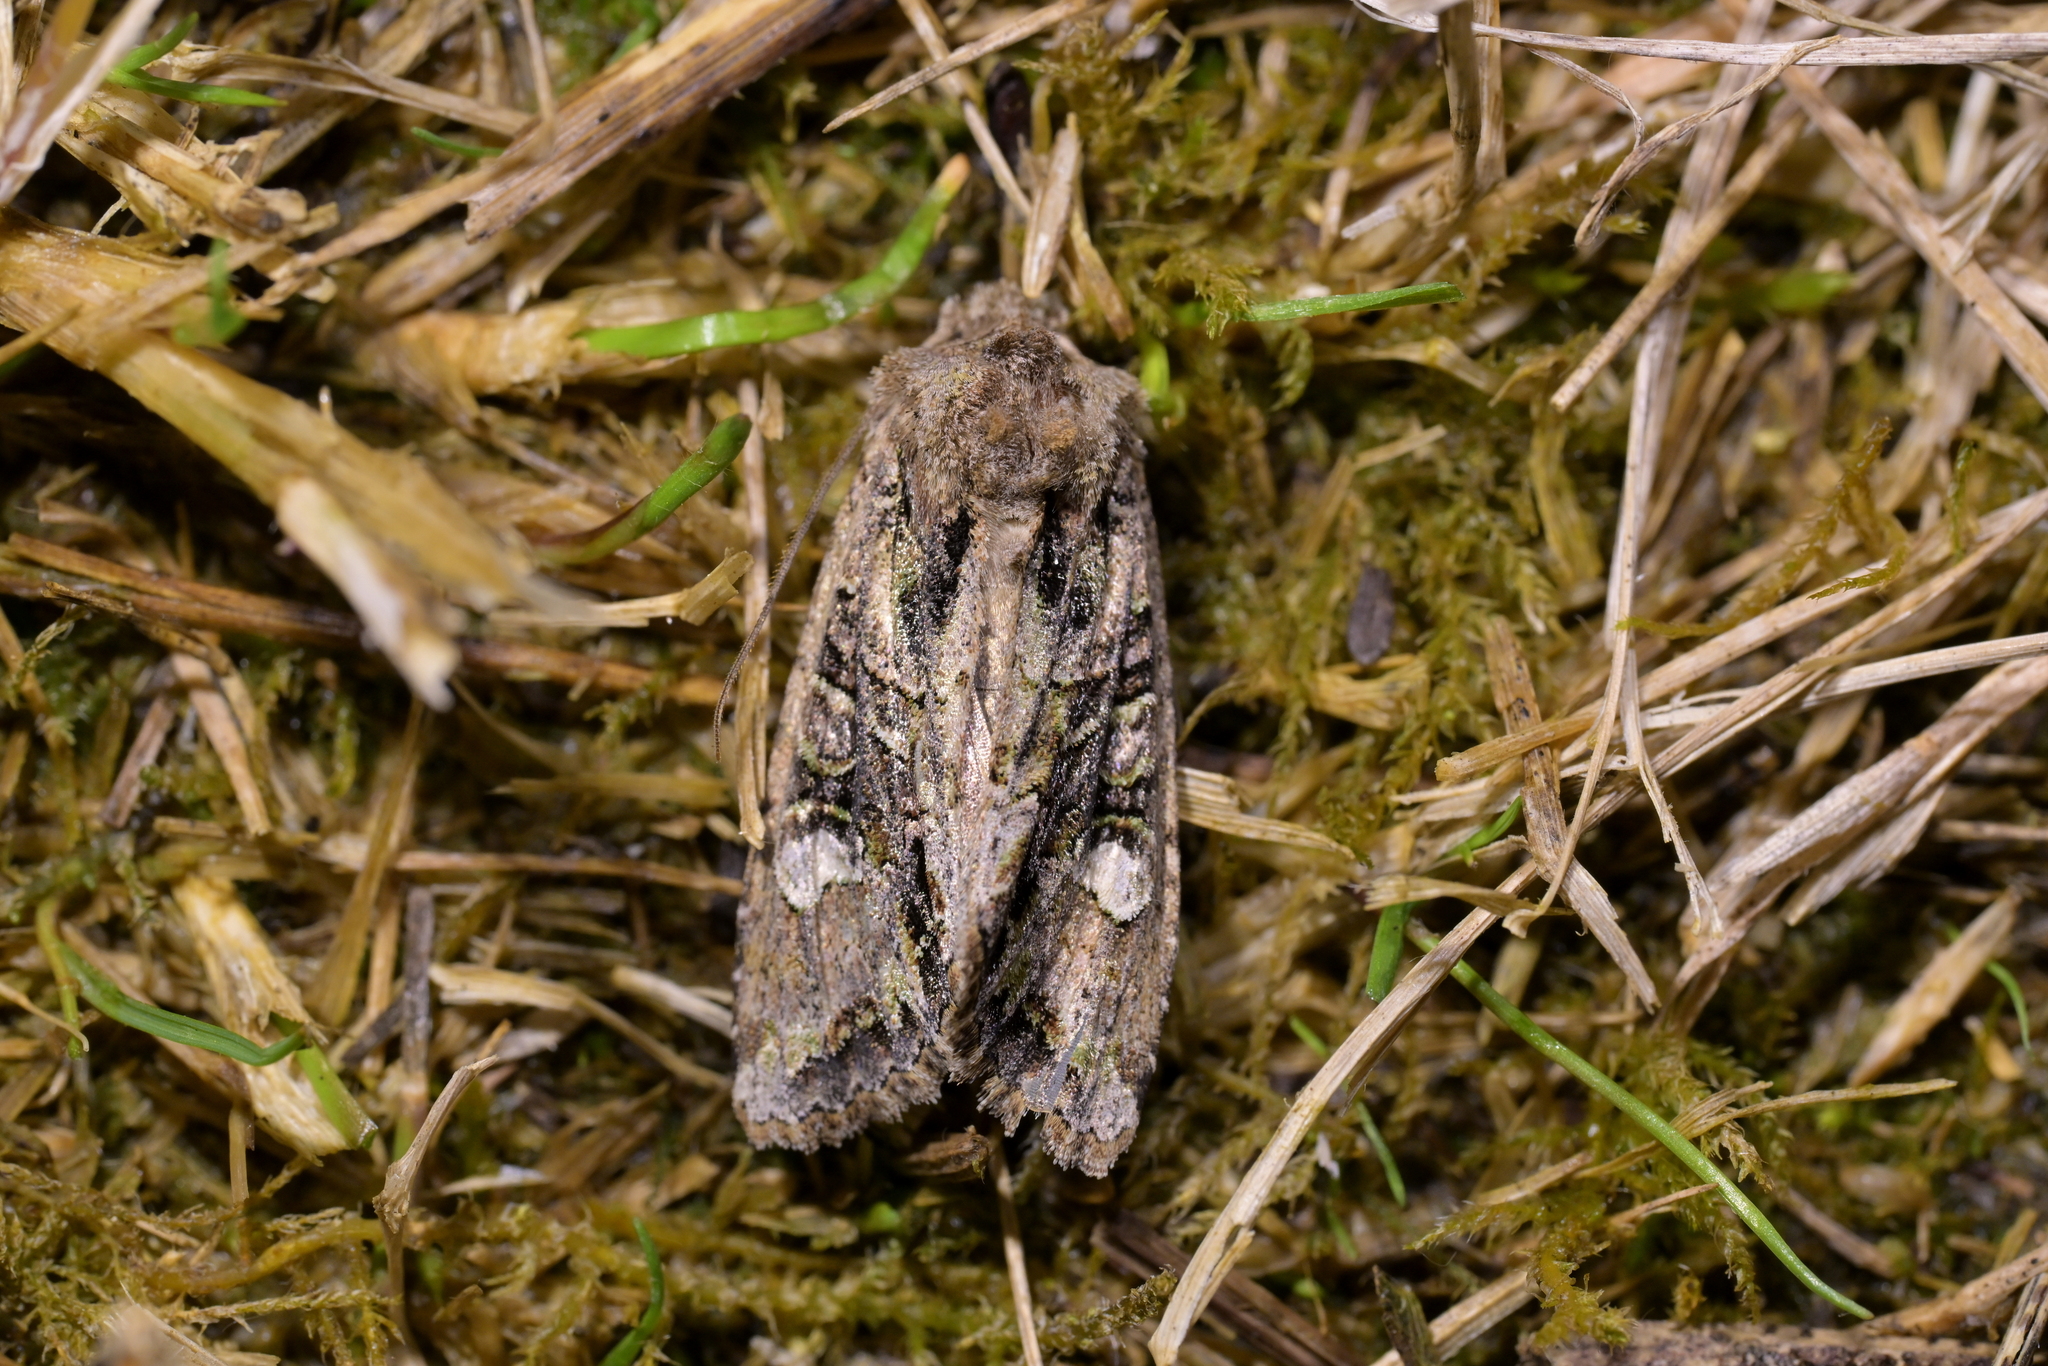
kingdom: Animalia
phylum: Arthropoda
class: Insecta
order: Lepidoptera
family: Noctuidae
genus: Ichneutica
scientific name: Ichneutica insignis
